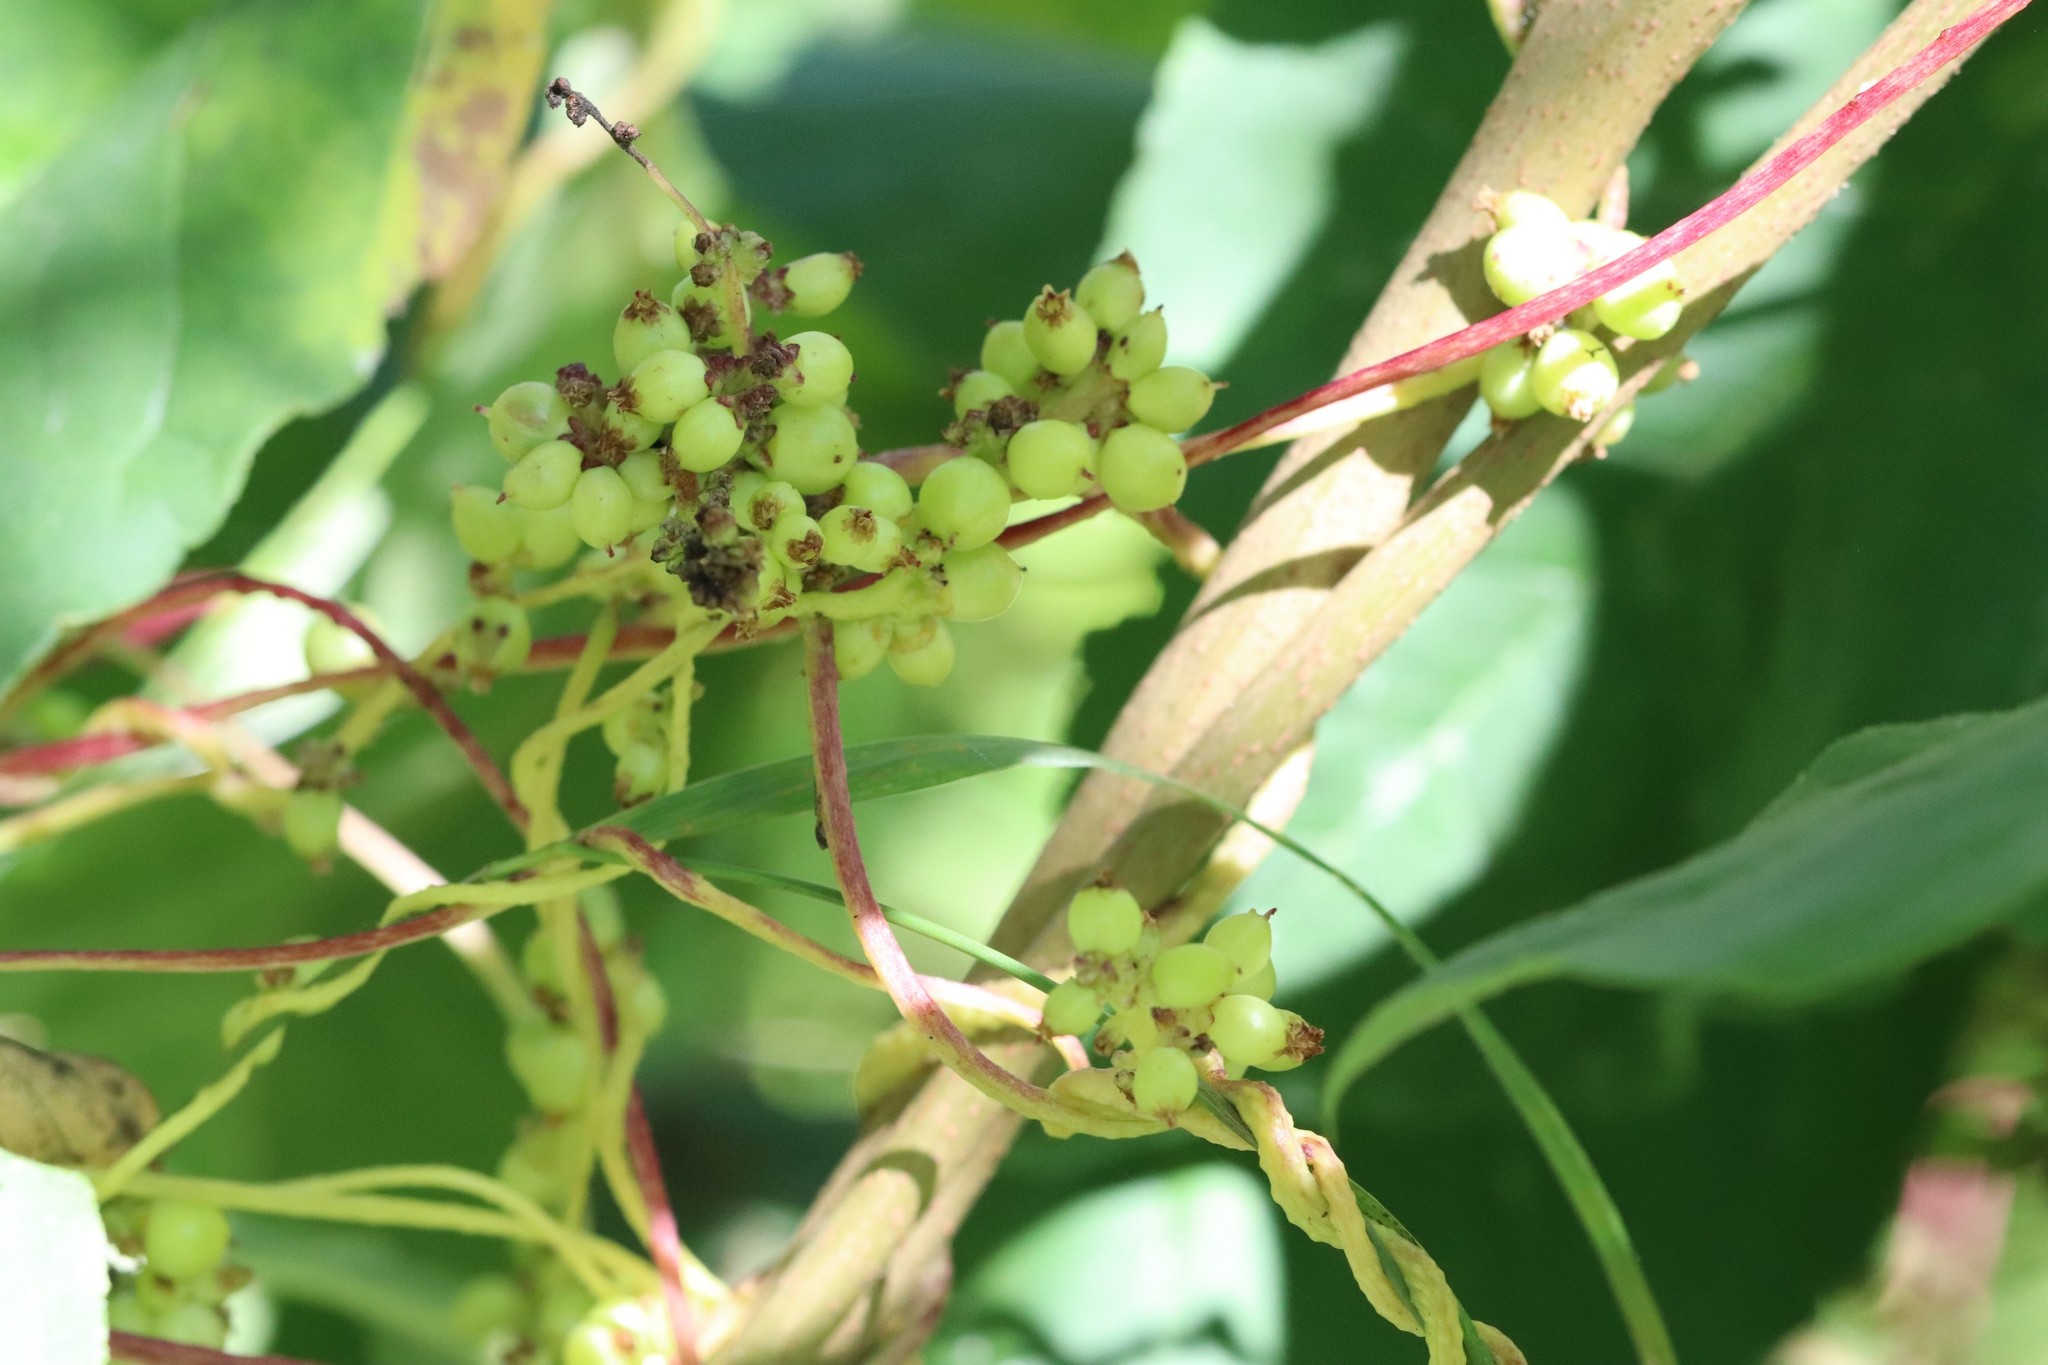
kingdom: Plantae
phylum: Tracheophyta
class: Magnoliopsida
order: Solanales
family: Convolvulaceae
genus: Cuscuta
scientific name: Cuscuta japonica
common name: Japanese dodder
